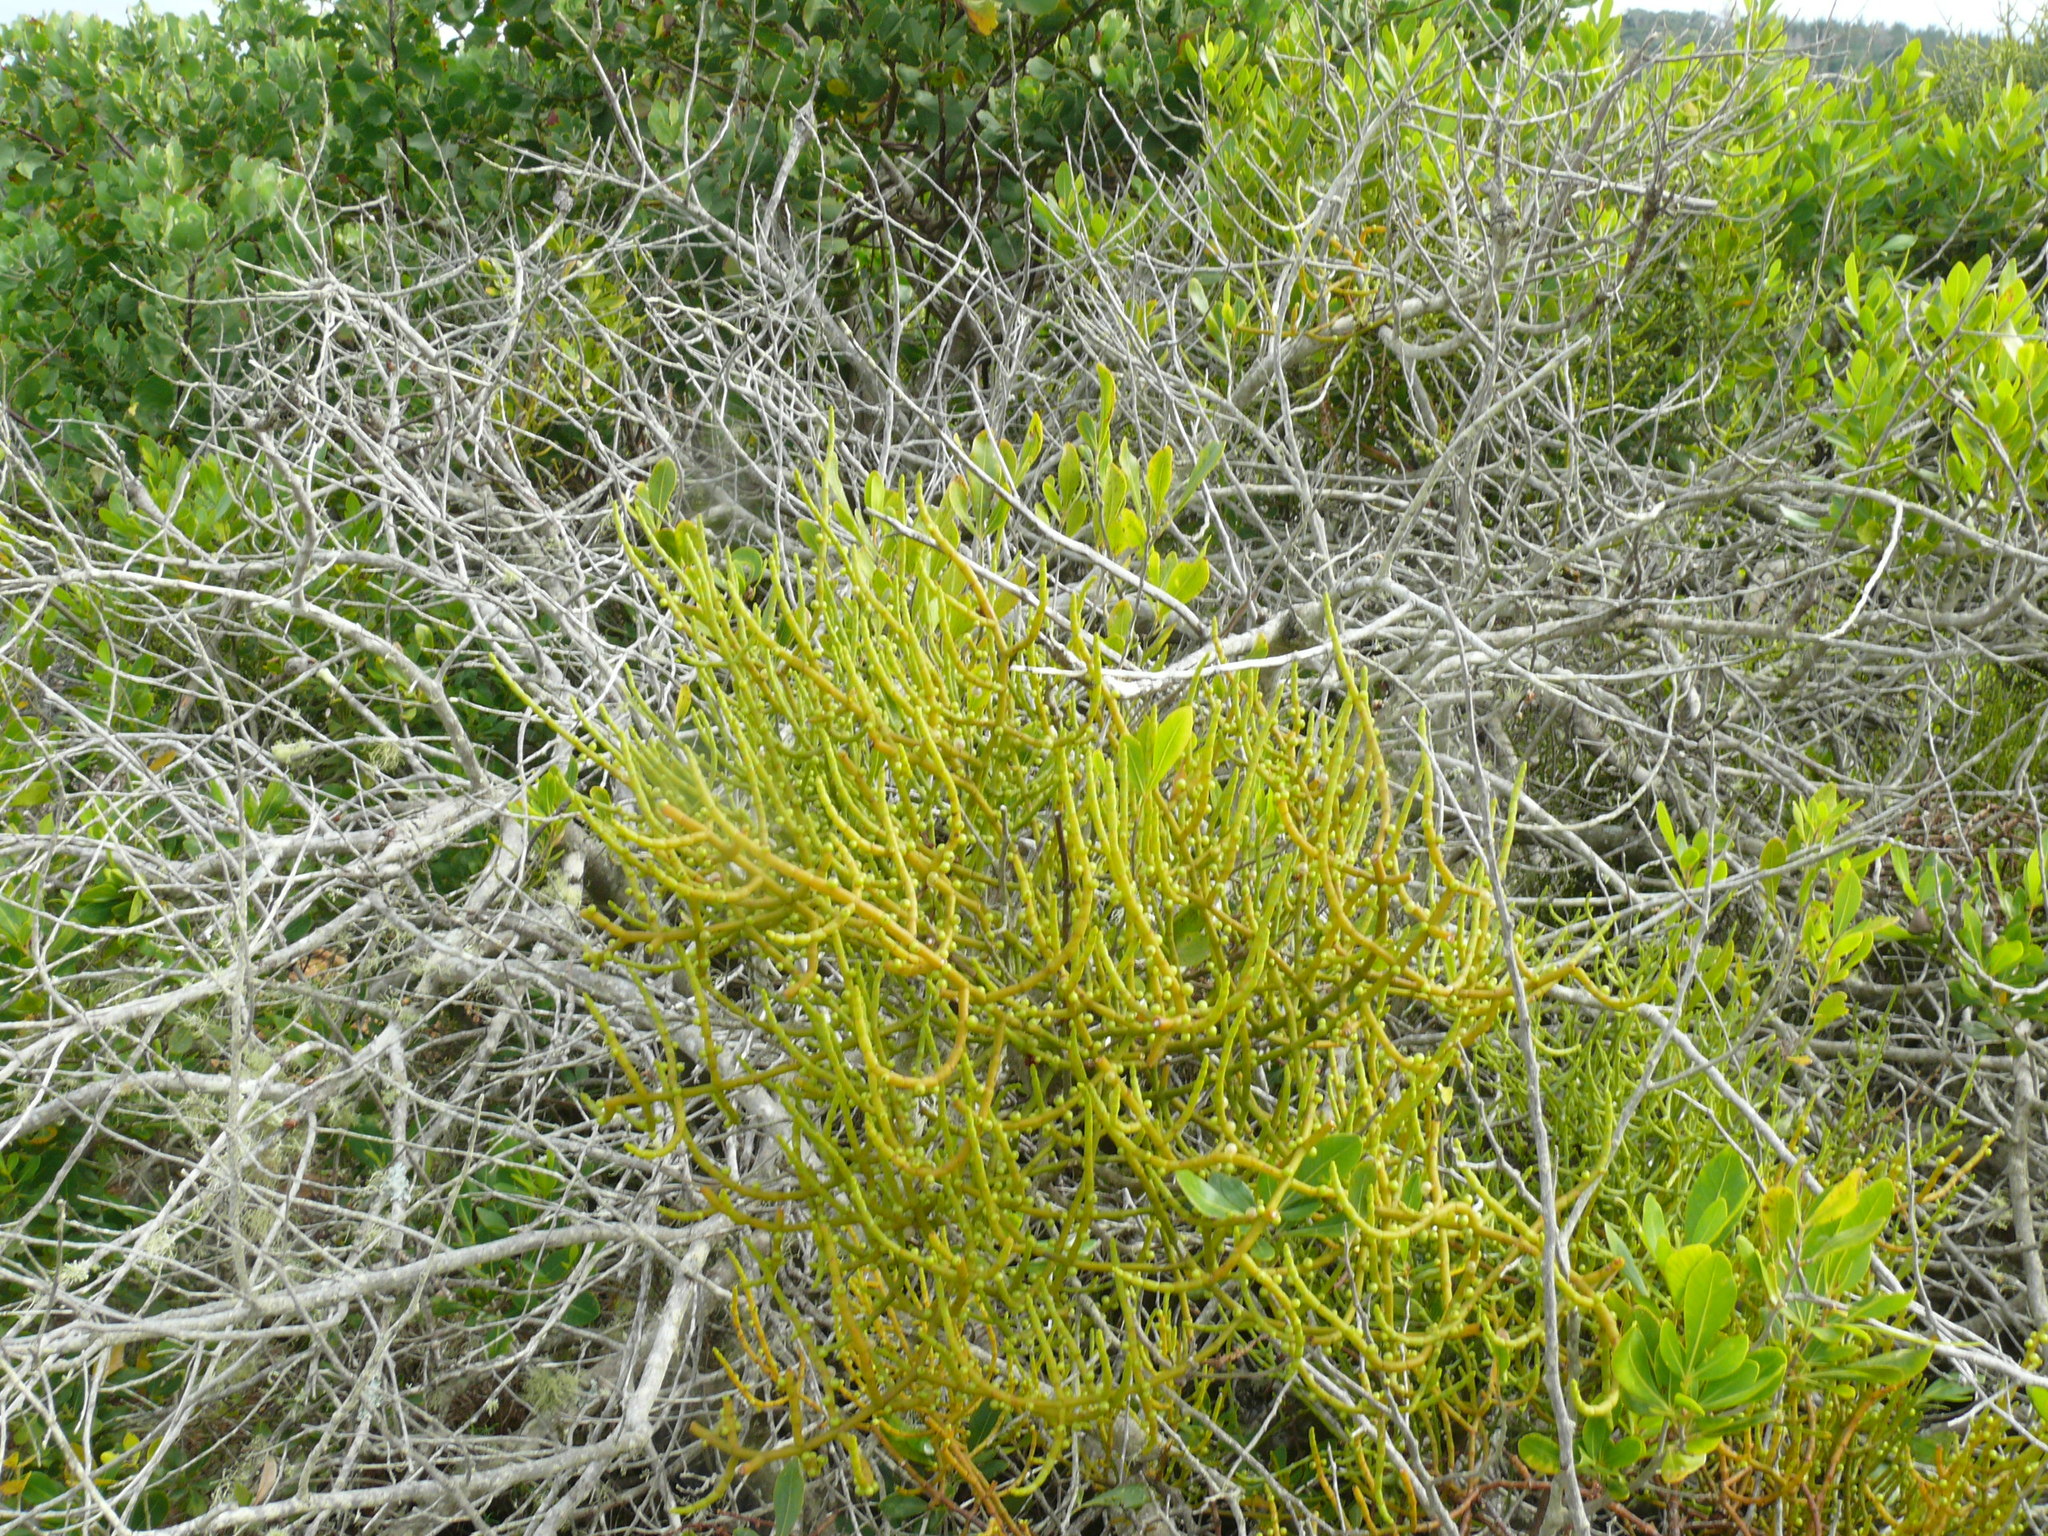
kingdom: Plantae
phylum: Tracheophyta
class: Magnoliopsida
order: Santalales
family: Viscaceae
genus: Viscum
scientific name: Viscum hoolei
